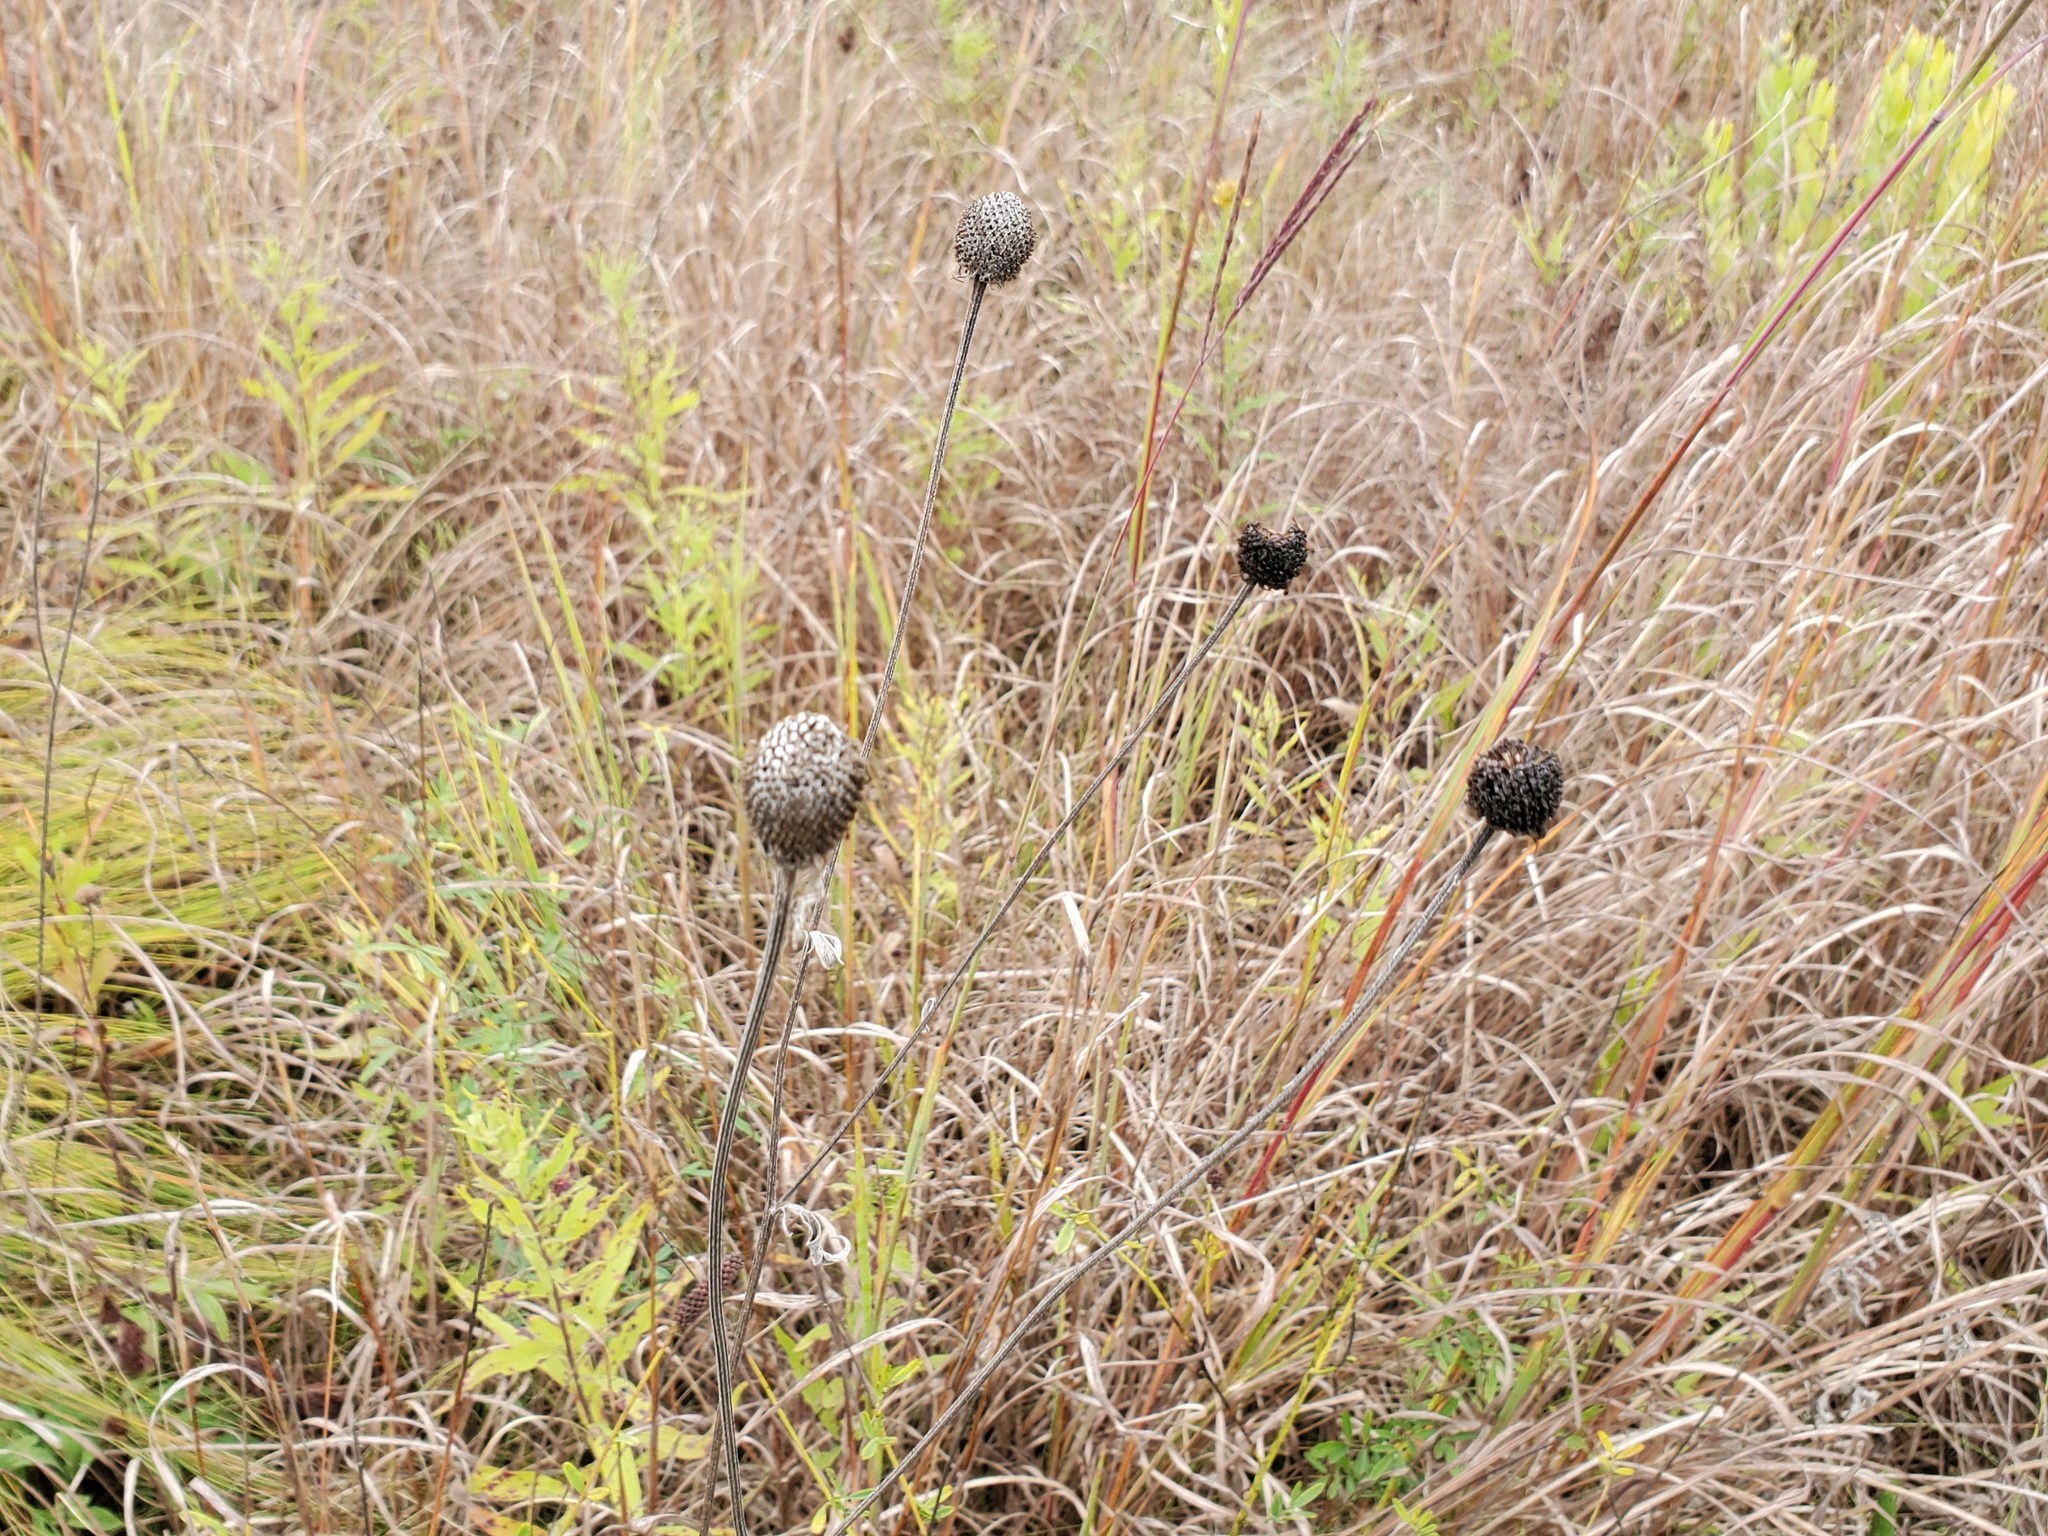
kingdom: Plantae
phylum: Tracheophyta
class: Magnoliopsida
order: Asterales
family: Asteraceae
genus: Ratibida
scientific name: Ratibida pinnata
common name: Drooping prairie-coneflower
